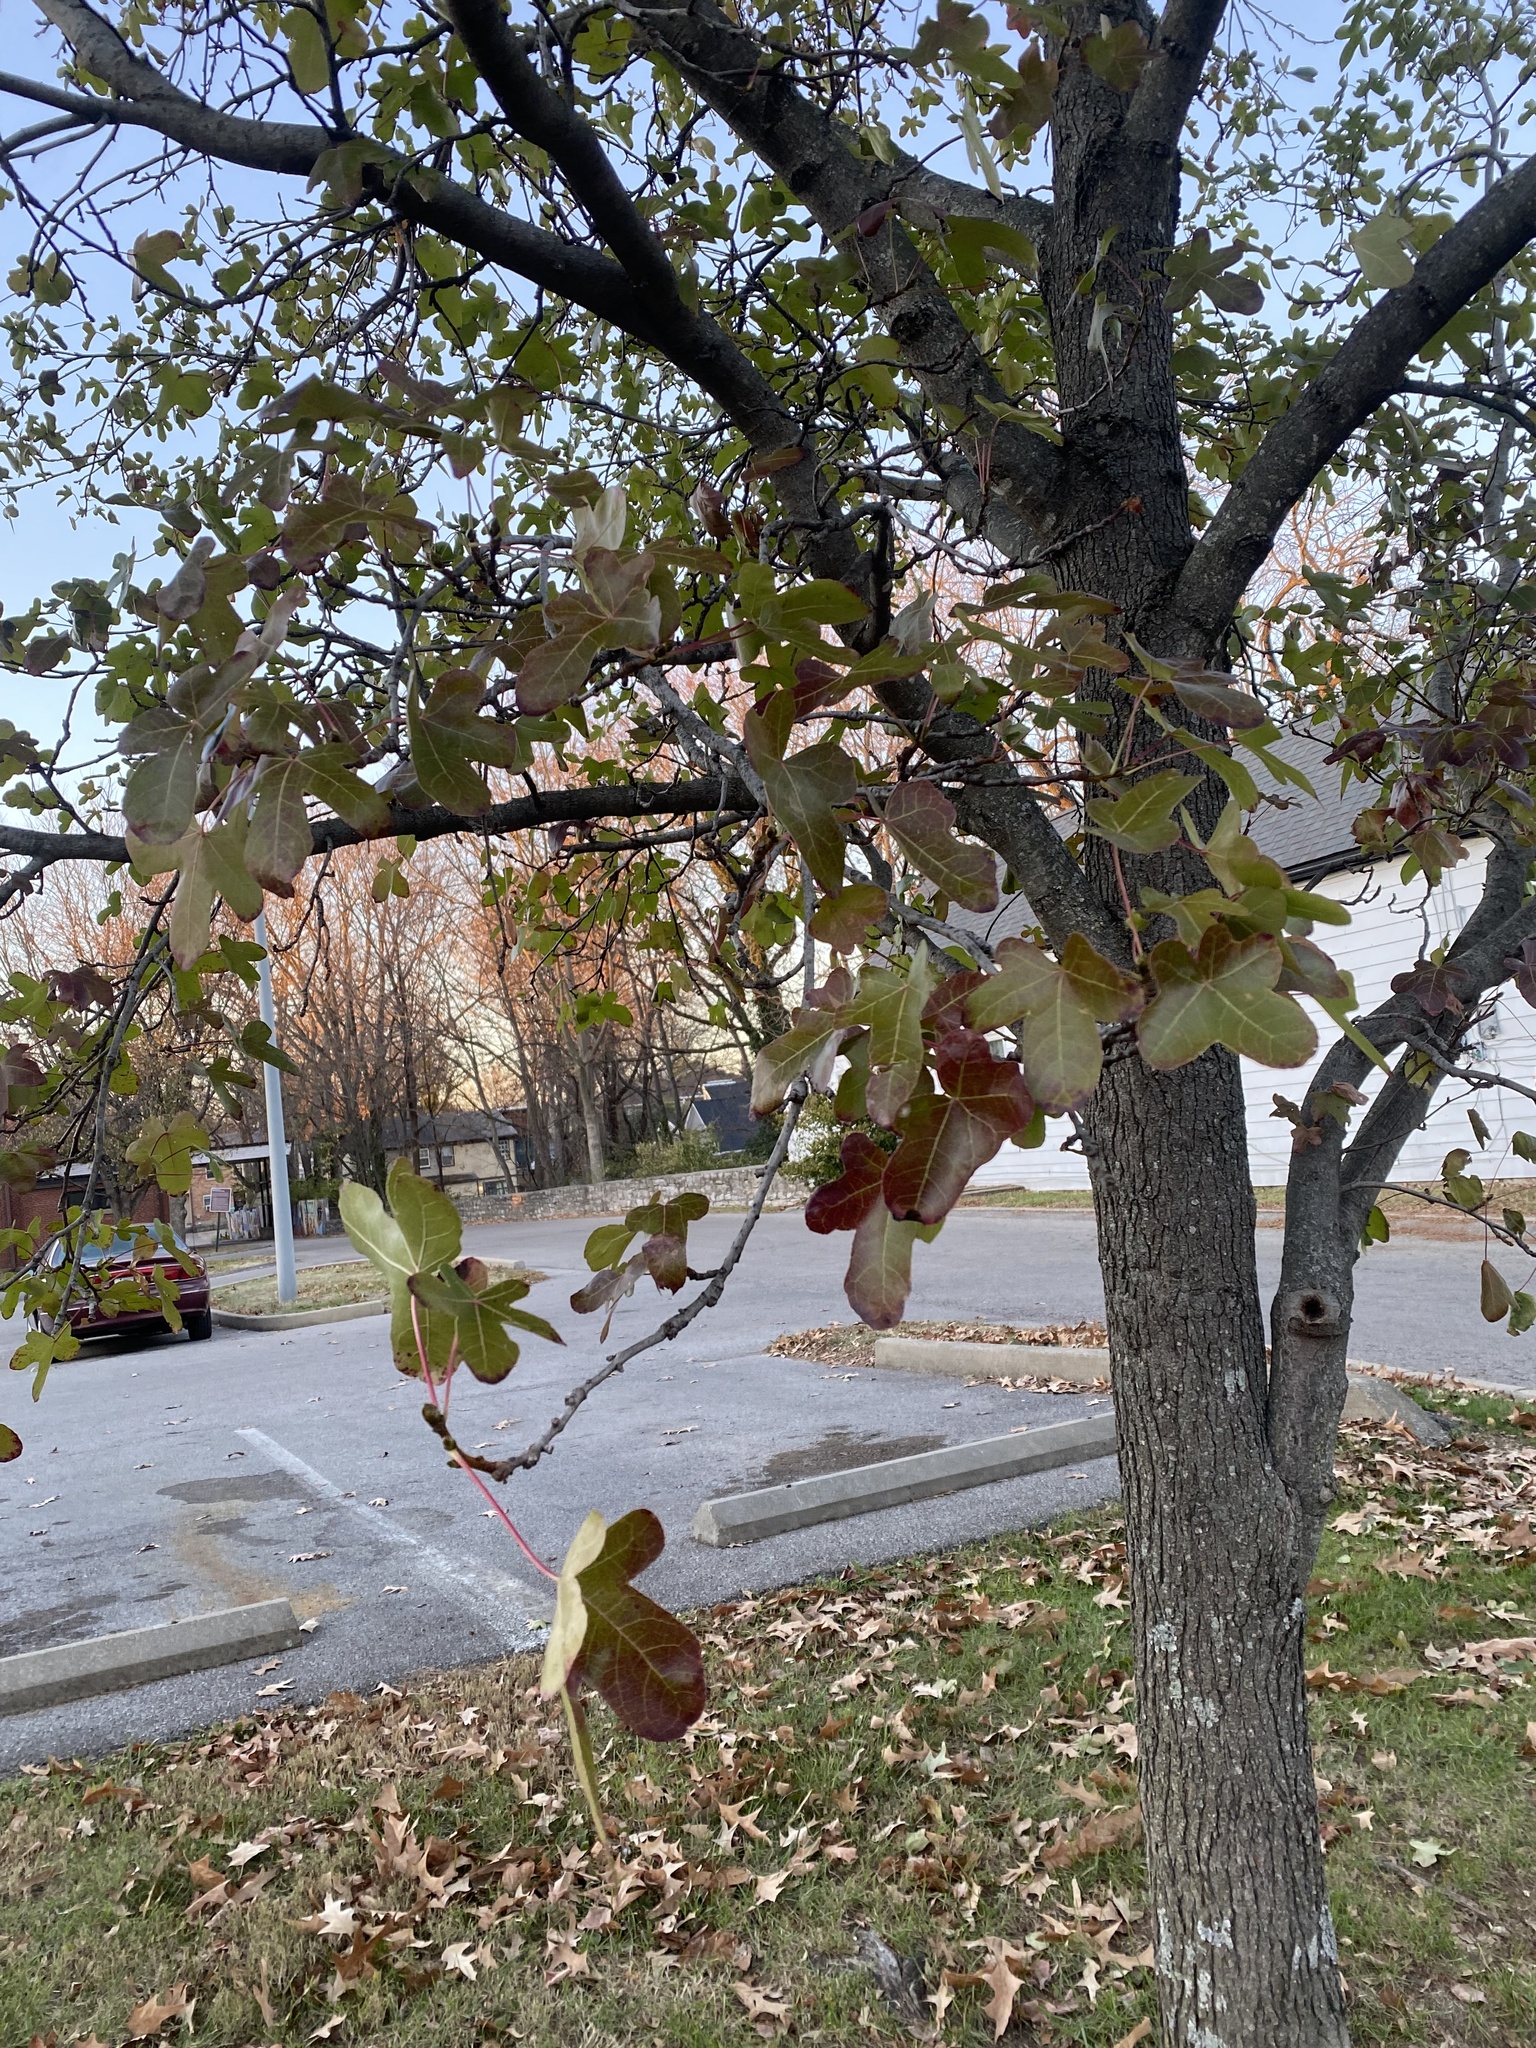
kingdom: Plantae
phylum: Tracheophyta
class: Magnoliopsida
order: Saxifragales
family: Altingiaceae
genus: Liquidambar
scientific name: Liquidambar styraciflua
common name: Sweet gum
